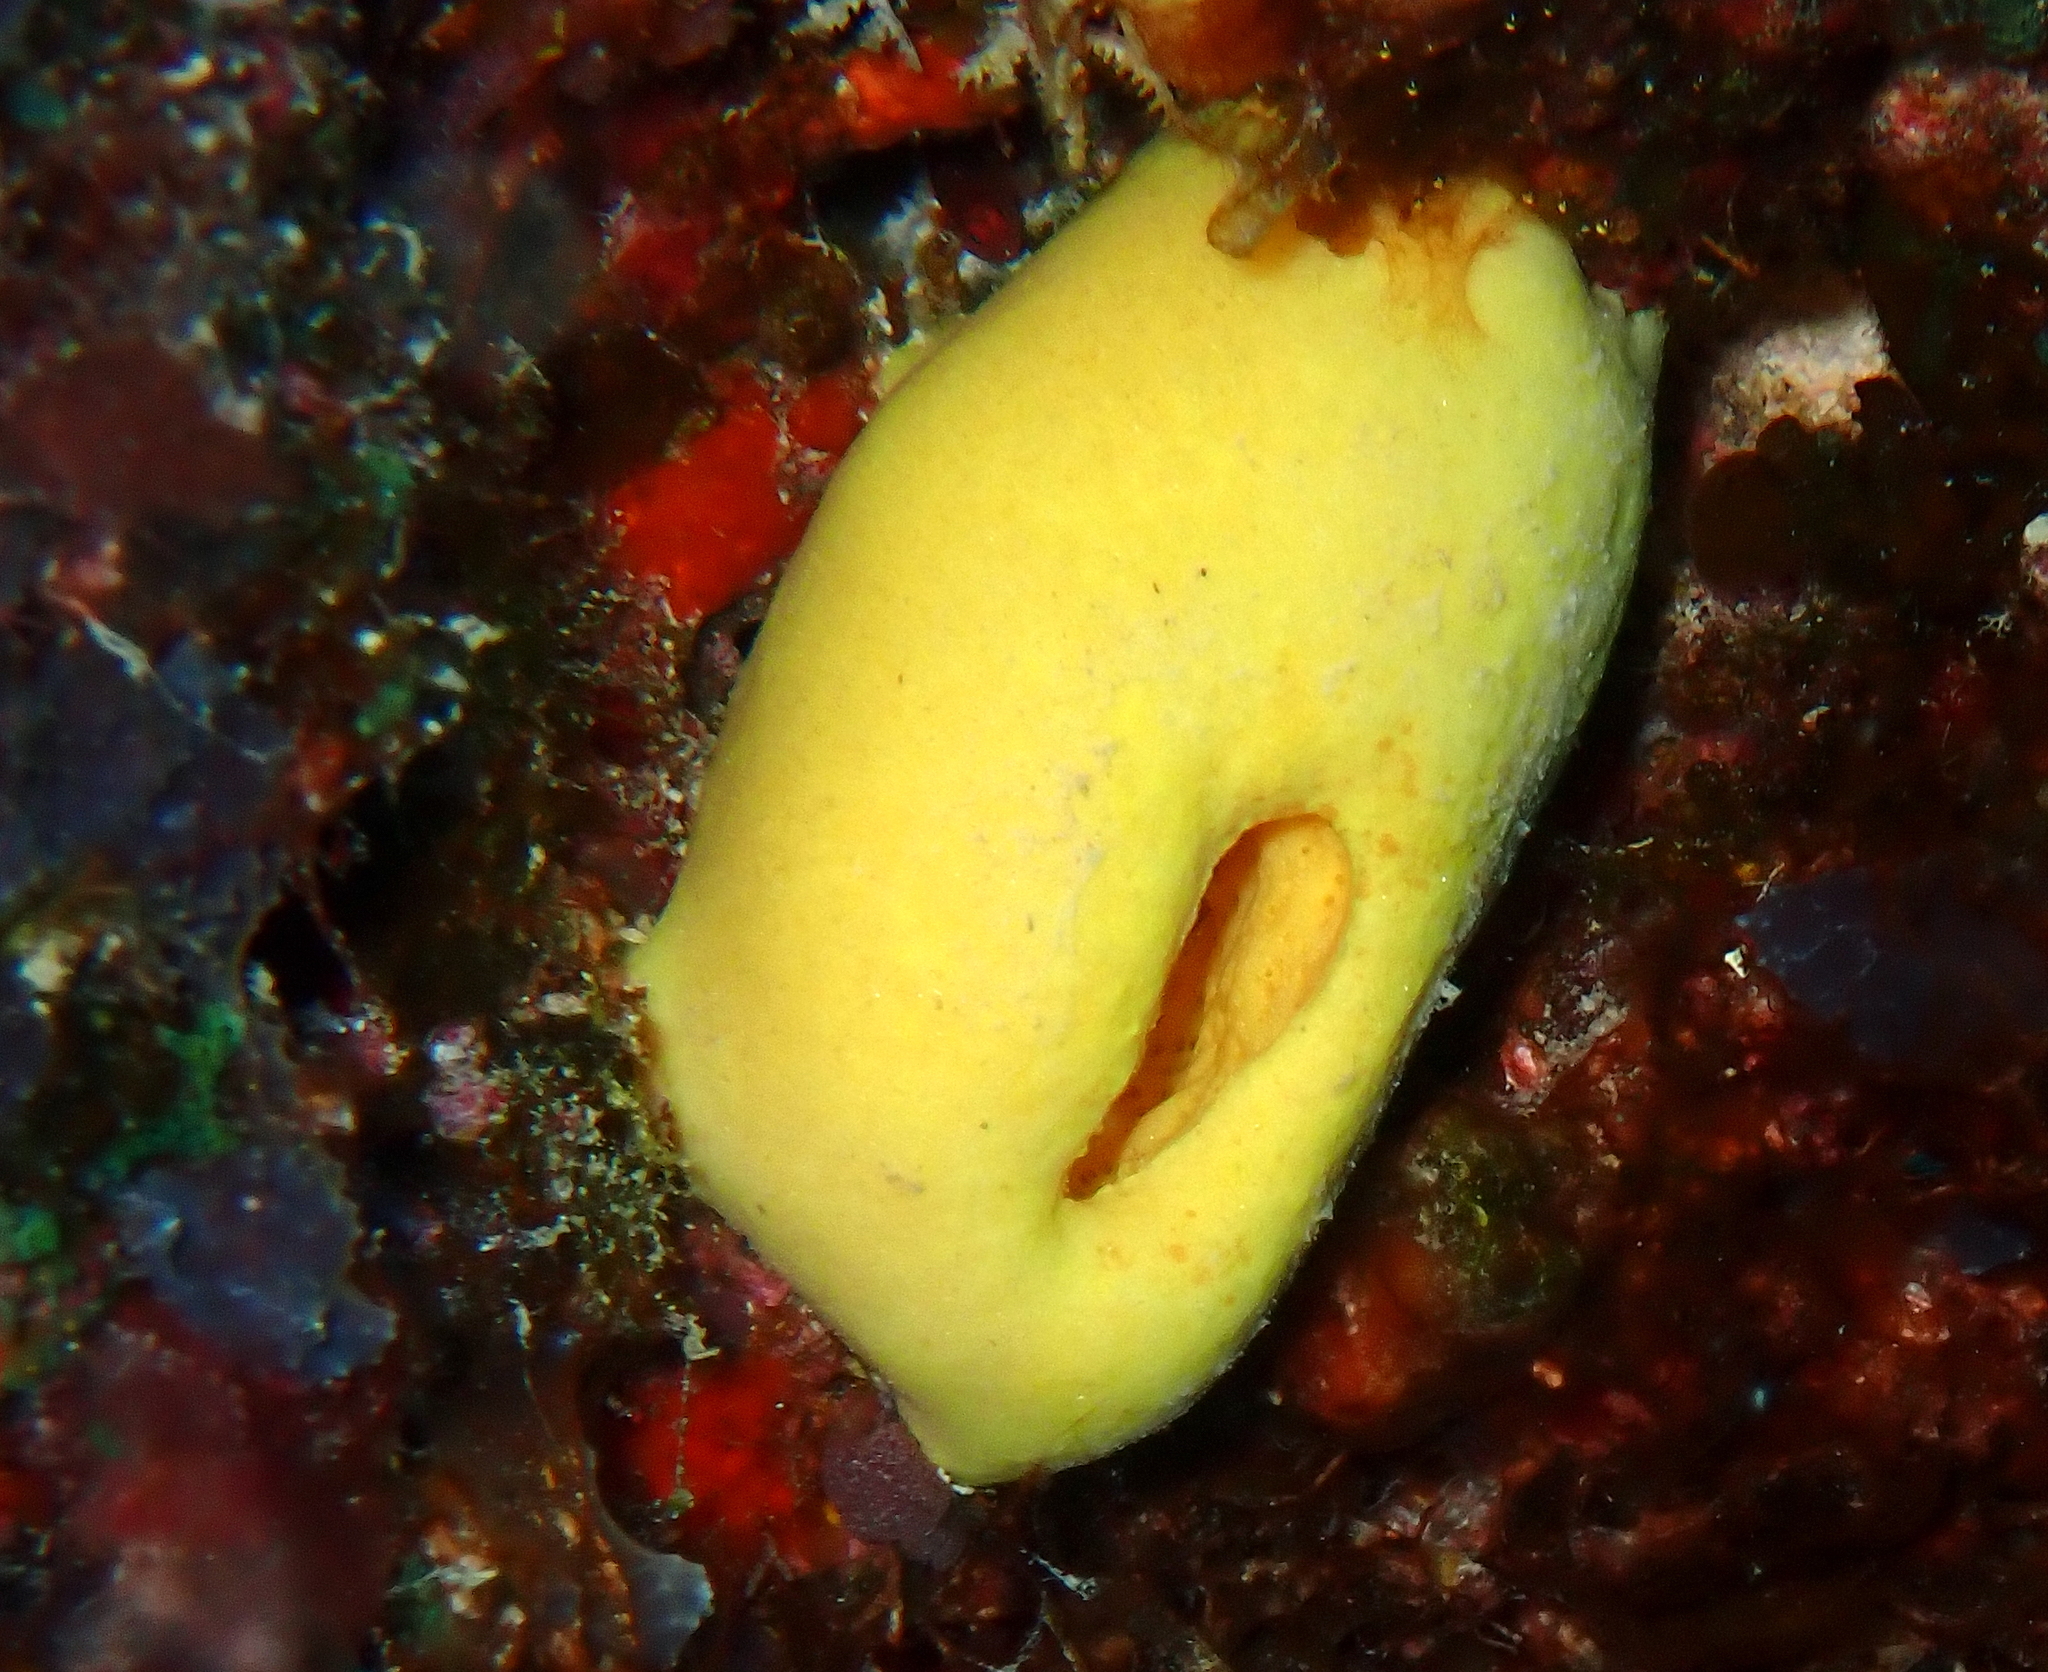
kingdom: Animalia
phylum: Porifera
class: Calcarea
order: Clathrinida
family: Leucettidae
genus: Leucetta
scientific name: Leucetta chagosensis
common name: Lemon sponge
